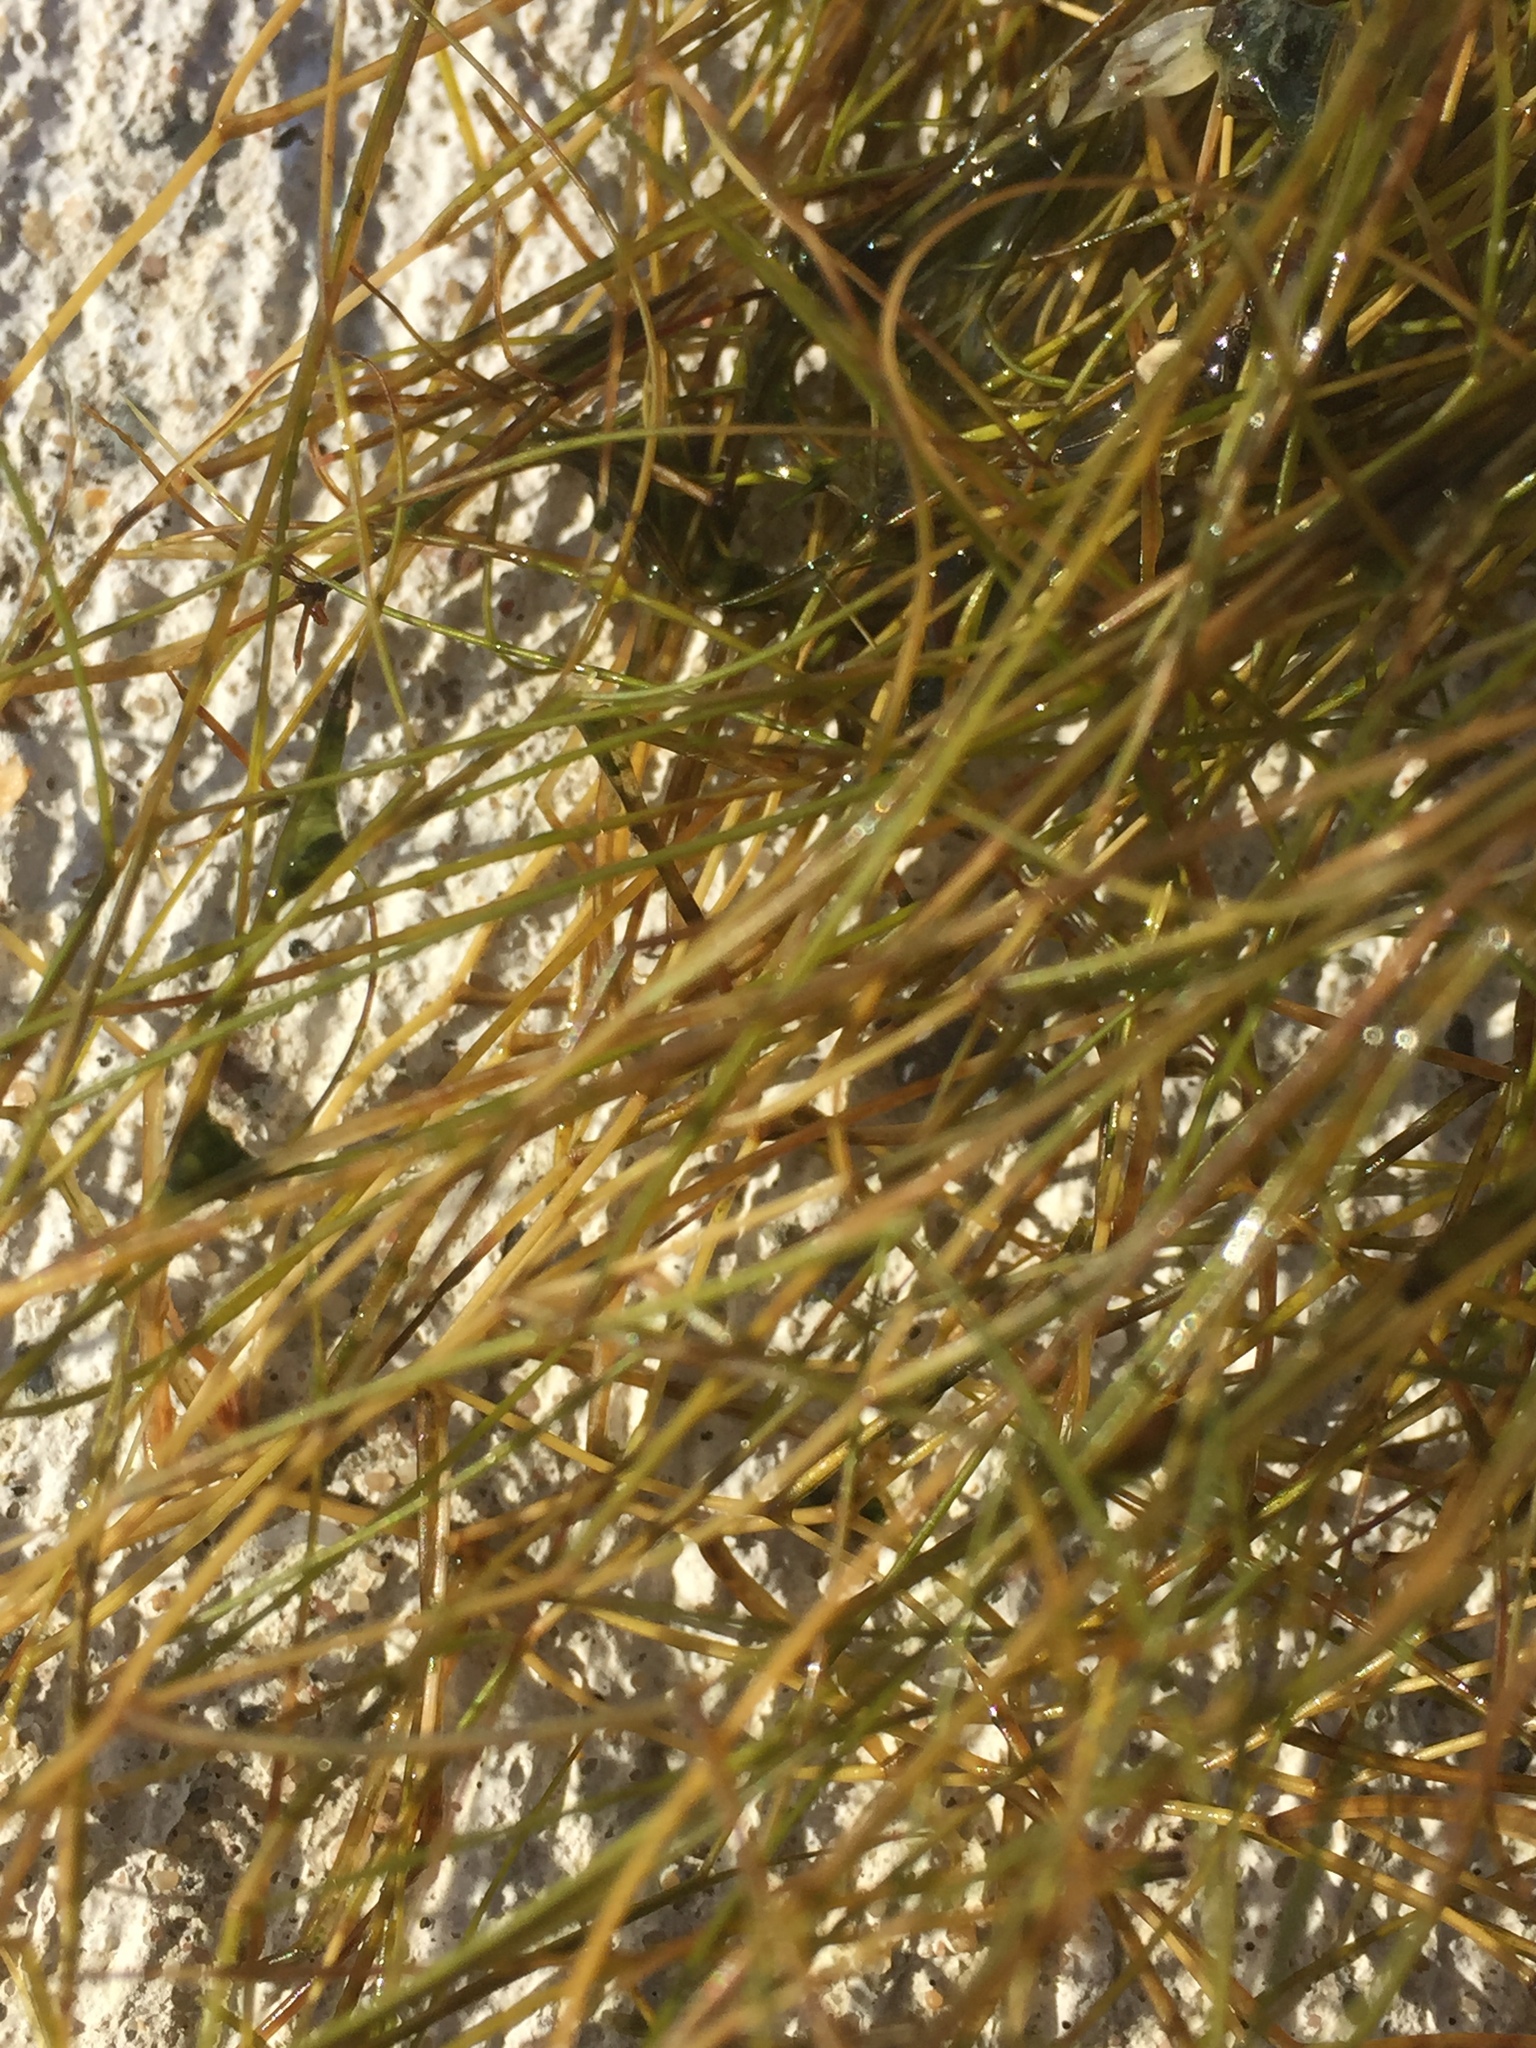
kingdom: Plantae
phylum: Tracheophyta
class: Liliopsida
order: Alismatales
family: Potamogetonaceae
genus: Stuckenia
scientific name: Stuckenia pectinata
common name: Sago pondweed
